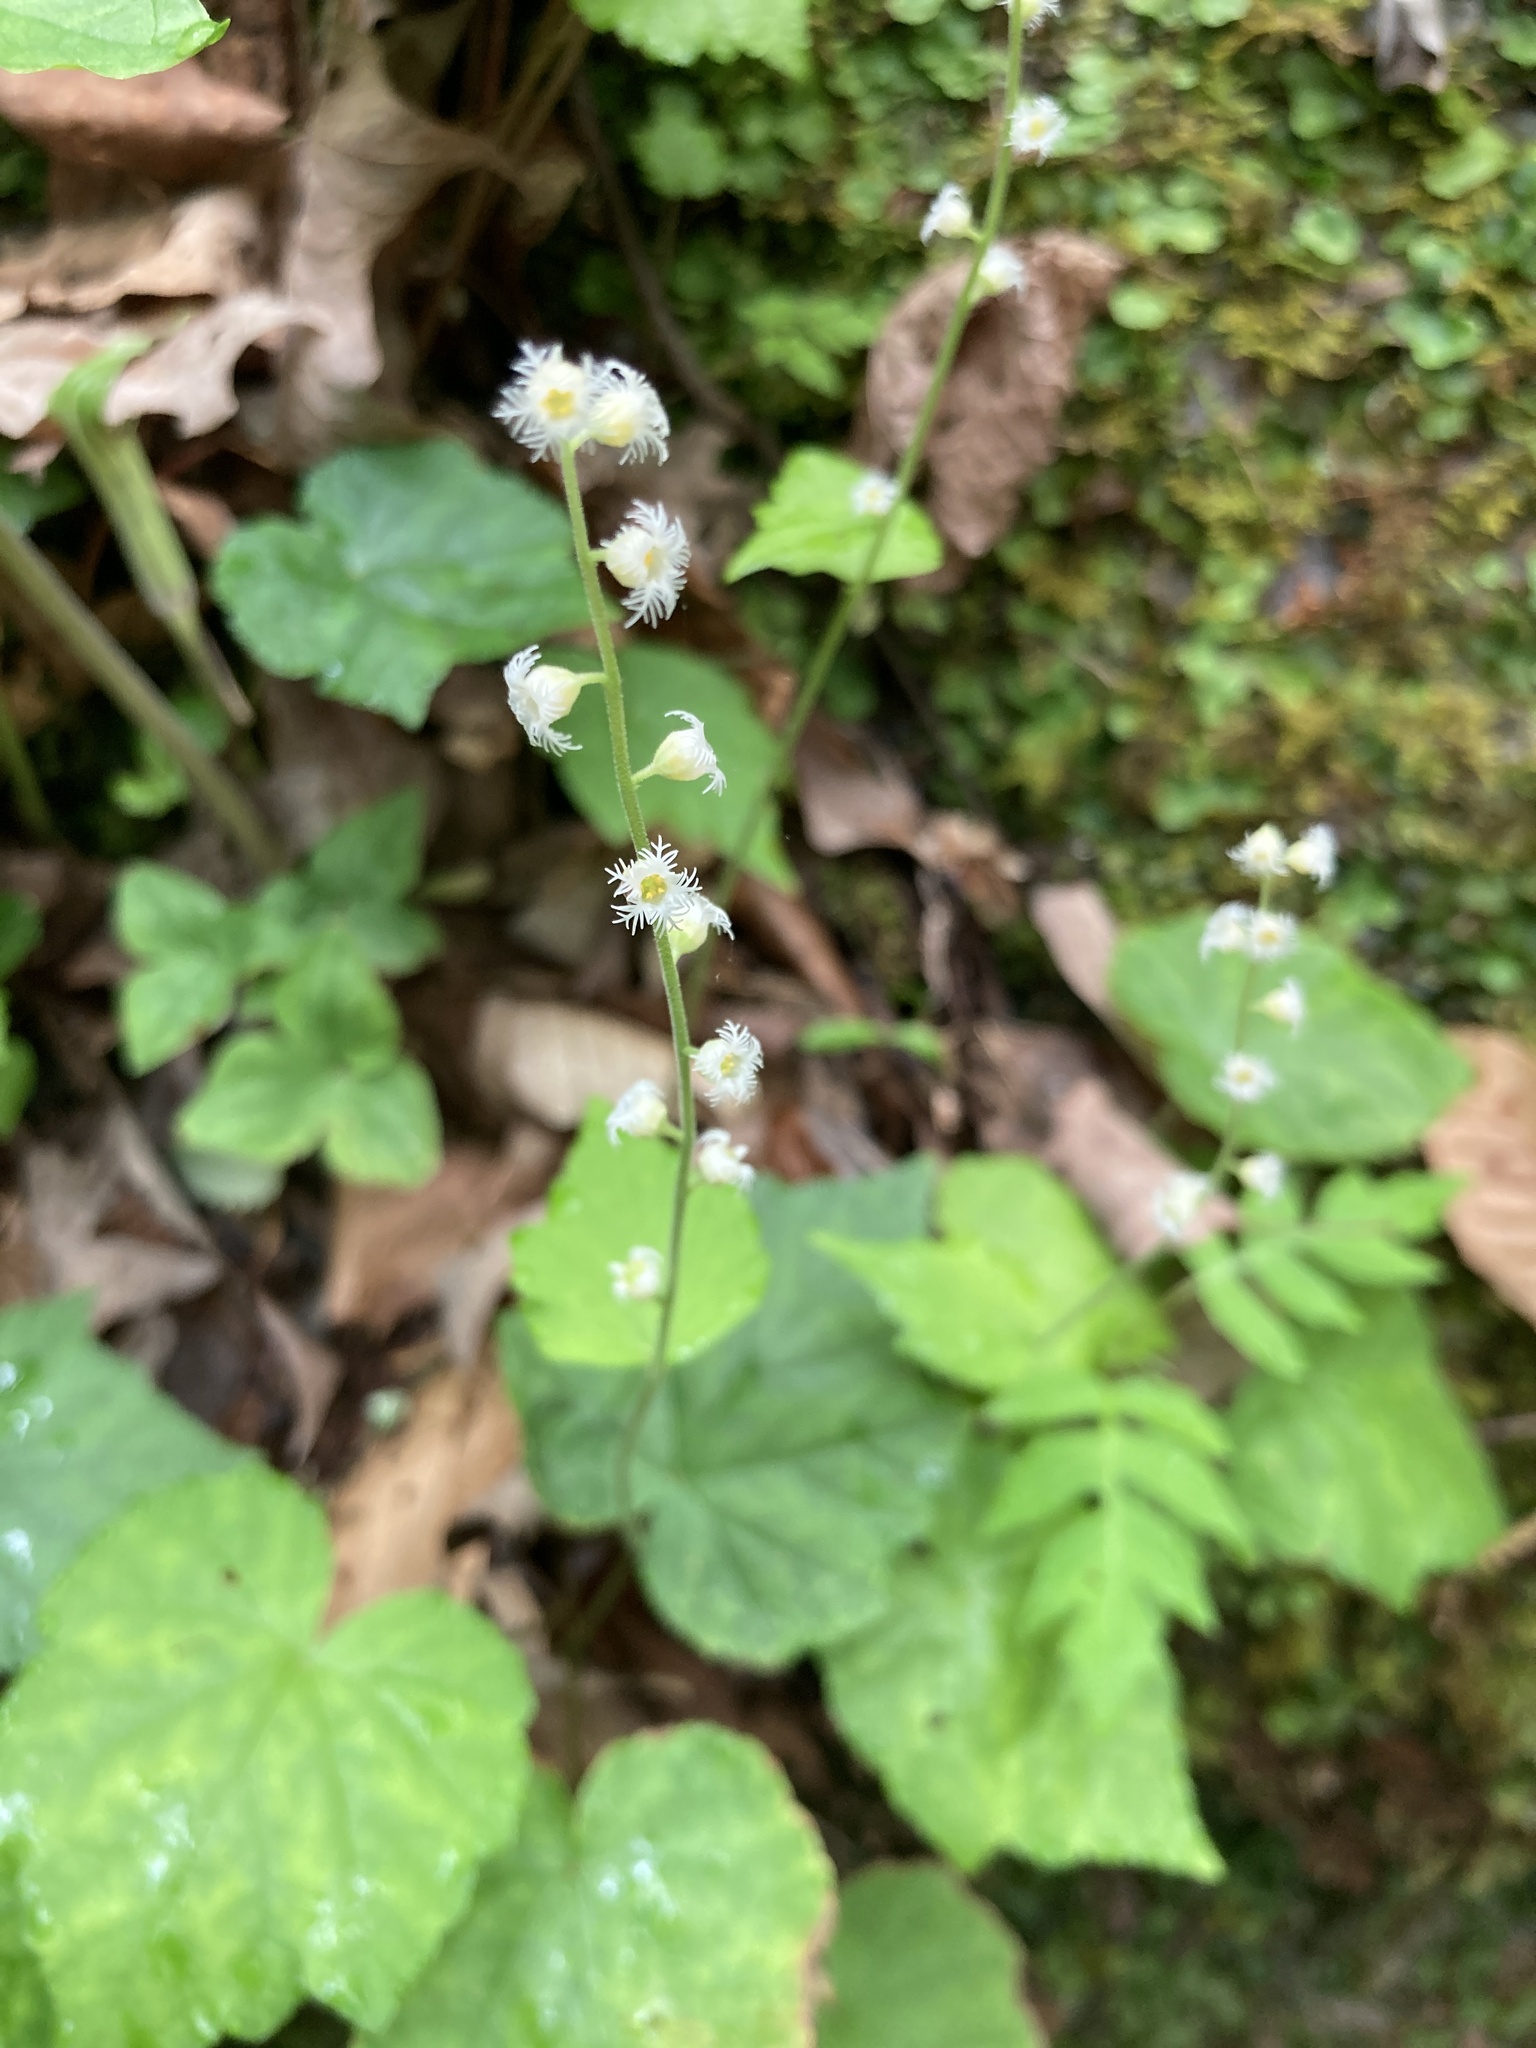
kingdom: Plantae
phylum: Tracheophyta
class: Magnoliopsida
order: Saxifragales
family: Saxifragaceae
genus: Mitella
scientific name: Mitella diphylla
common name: Coolwort
